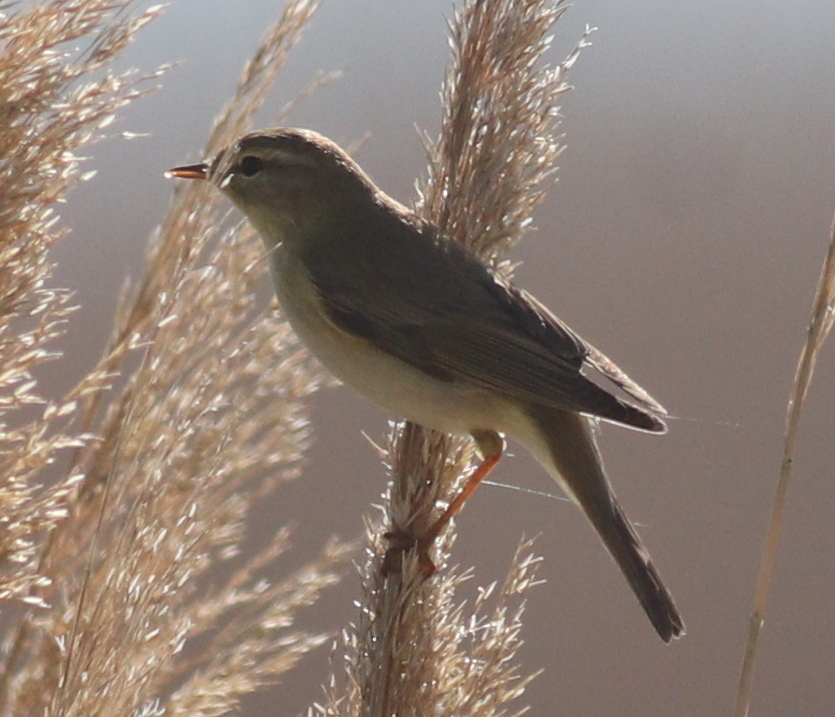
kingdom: Animalia
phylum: Chordata
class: Aves
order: Passeriformes
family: Phylloscopidae
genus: Phylloscopus
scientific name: Phylloscopus trochilus
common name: Willow warbler
